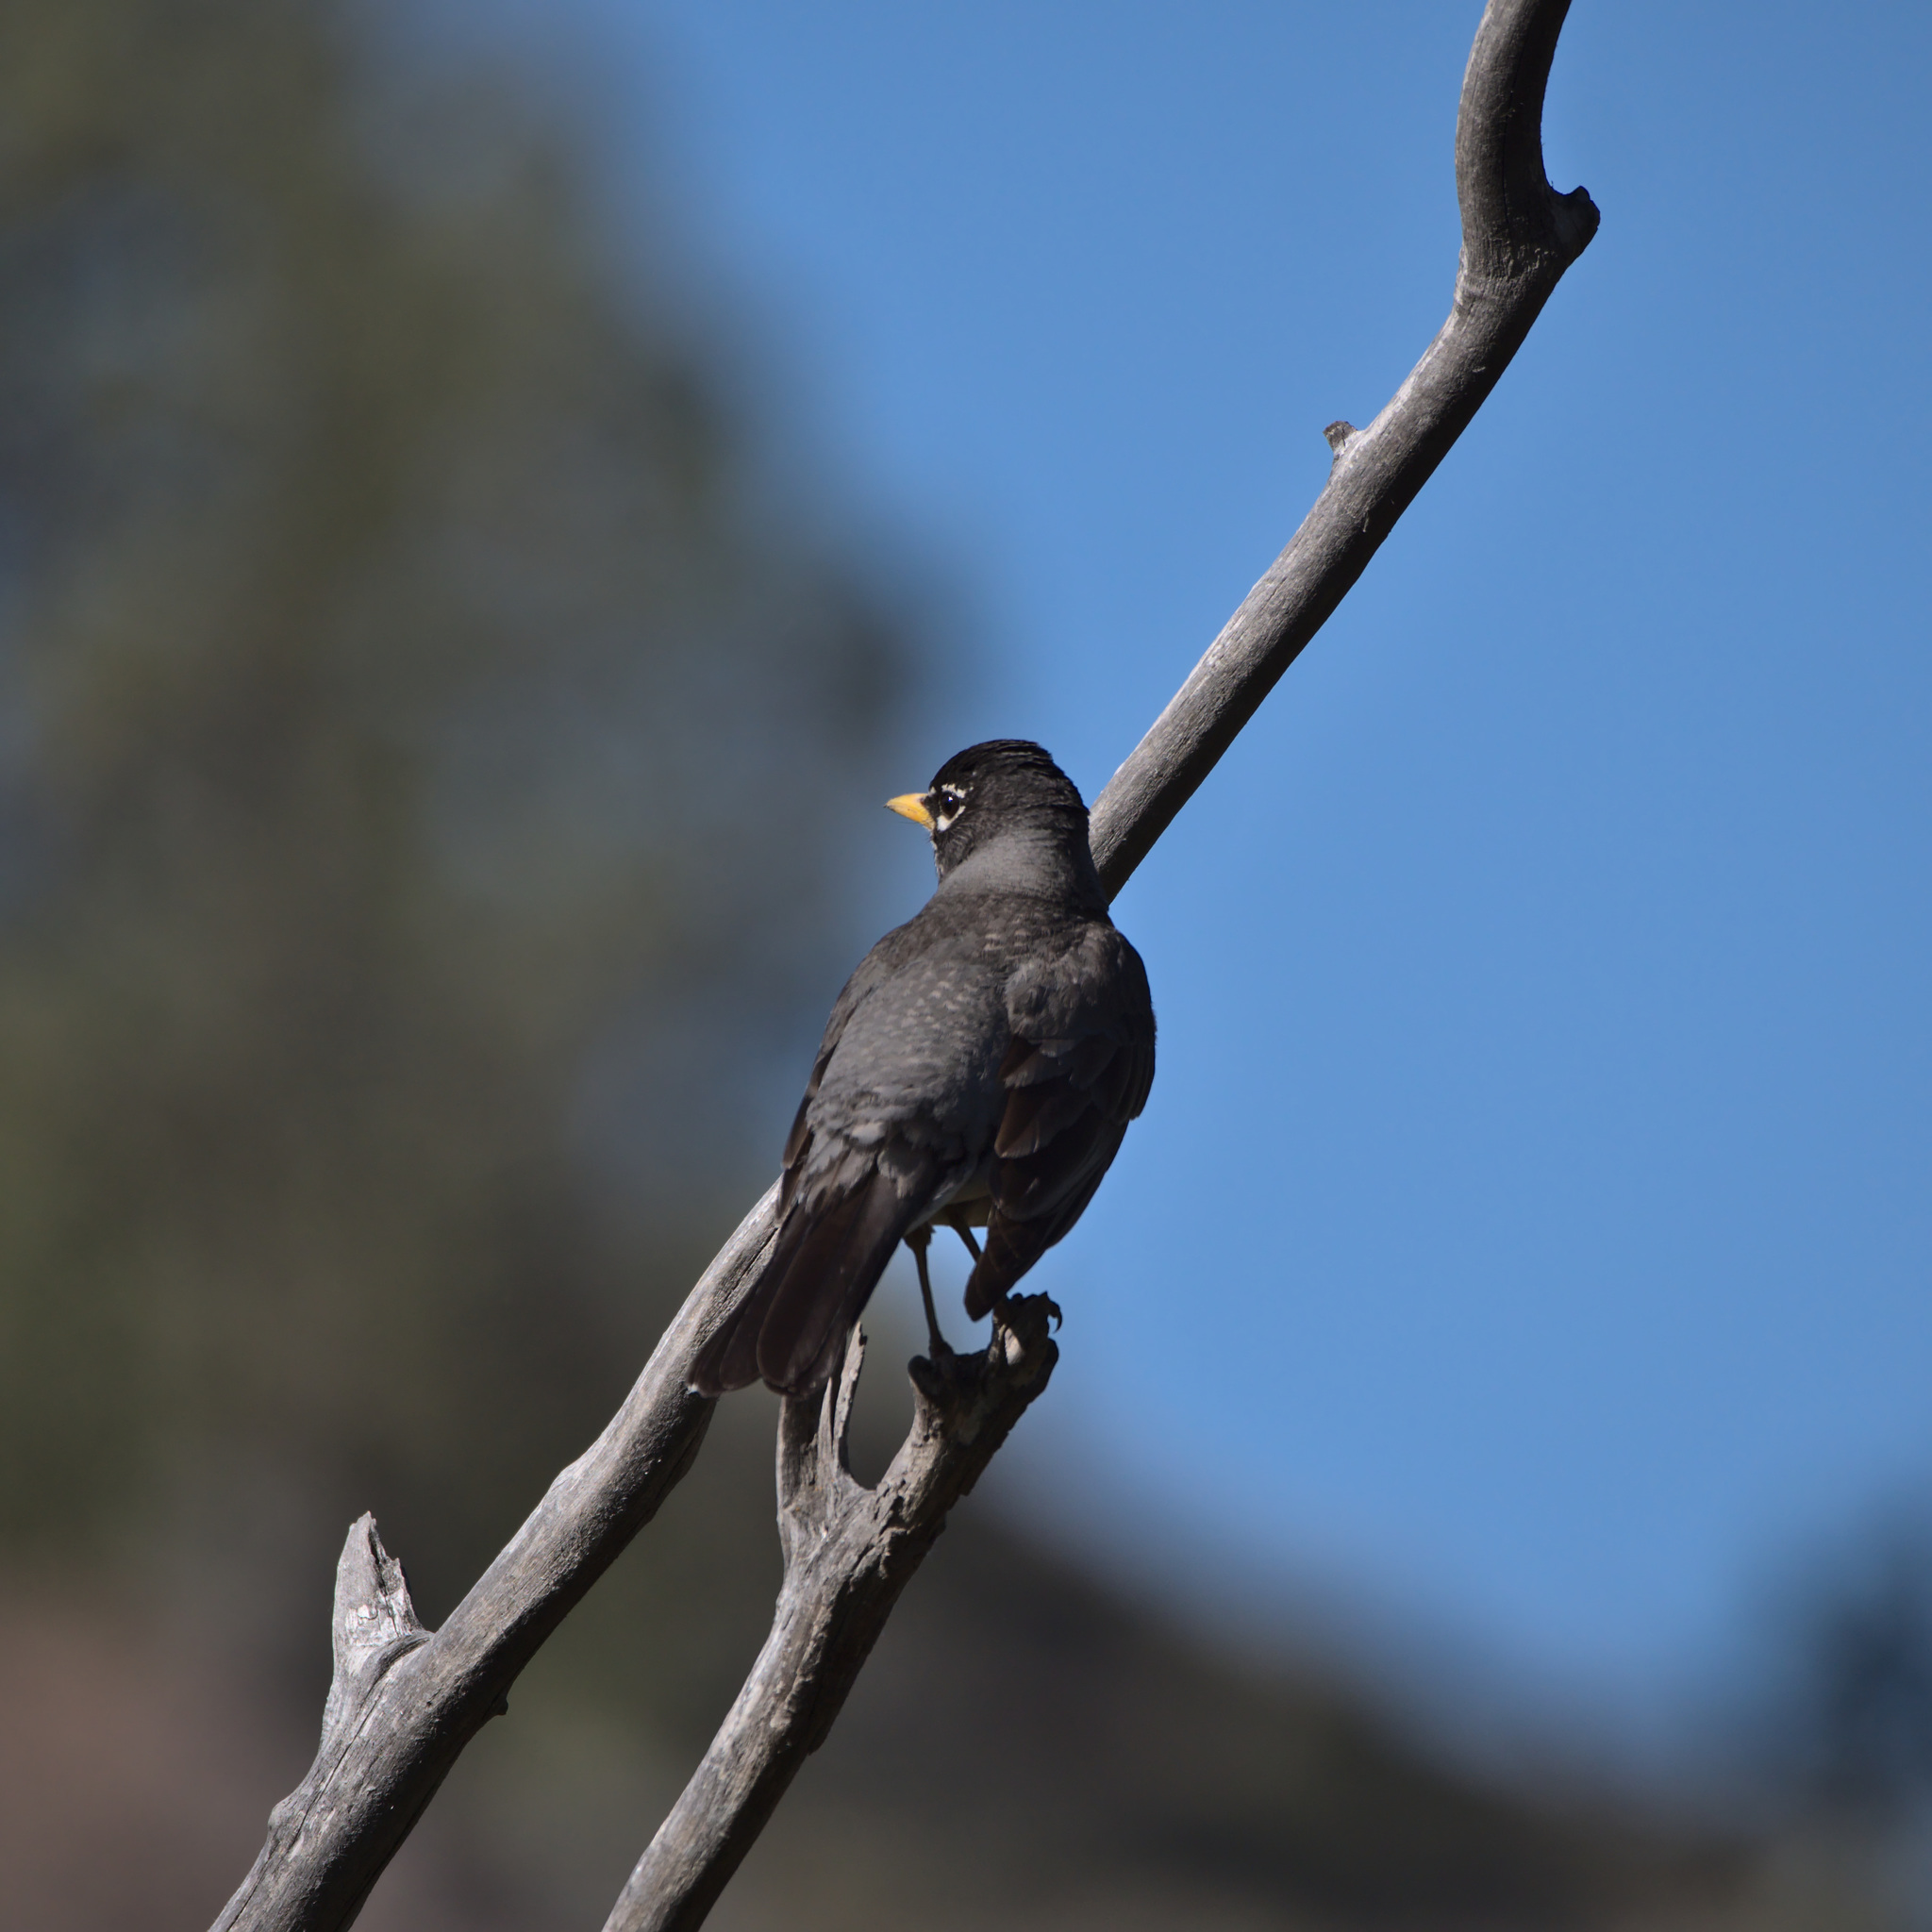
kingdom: Animalia
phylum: Chordata
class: Aves
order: Passeriformes
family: Turdidae
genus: Turdus
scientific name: Turdus migratorius
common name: American robin
